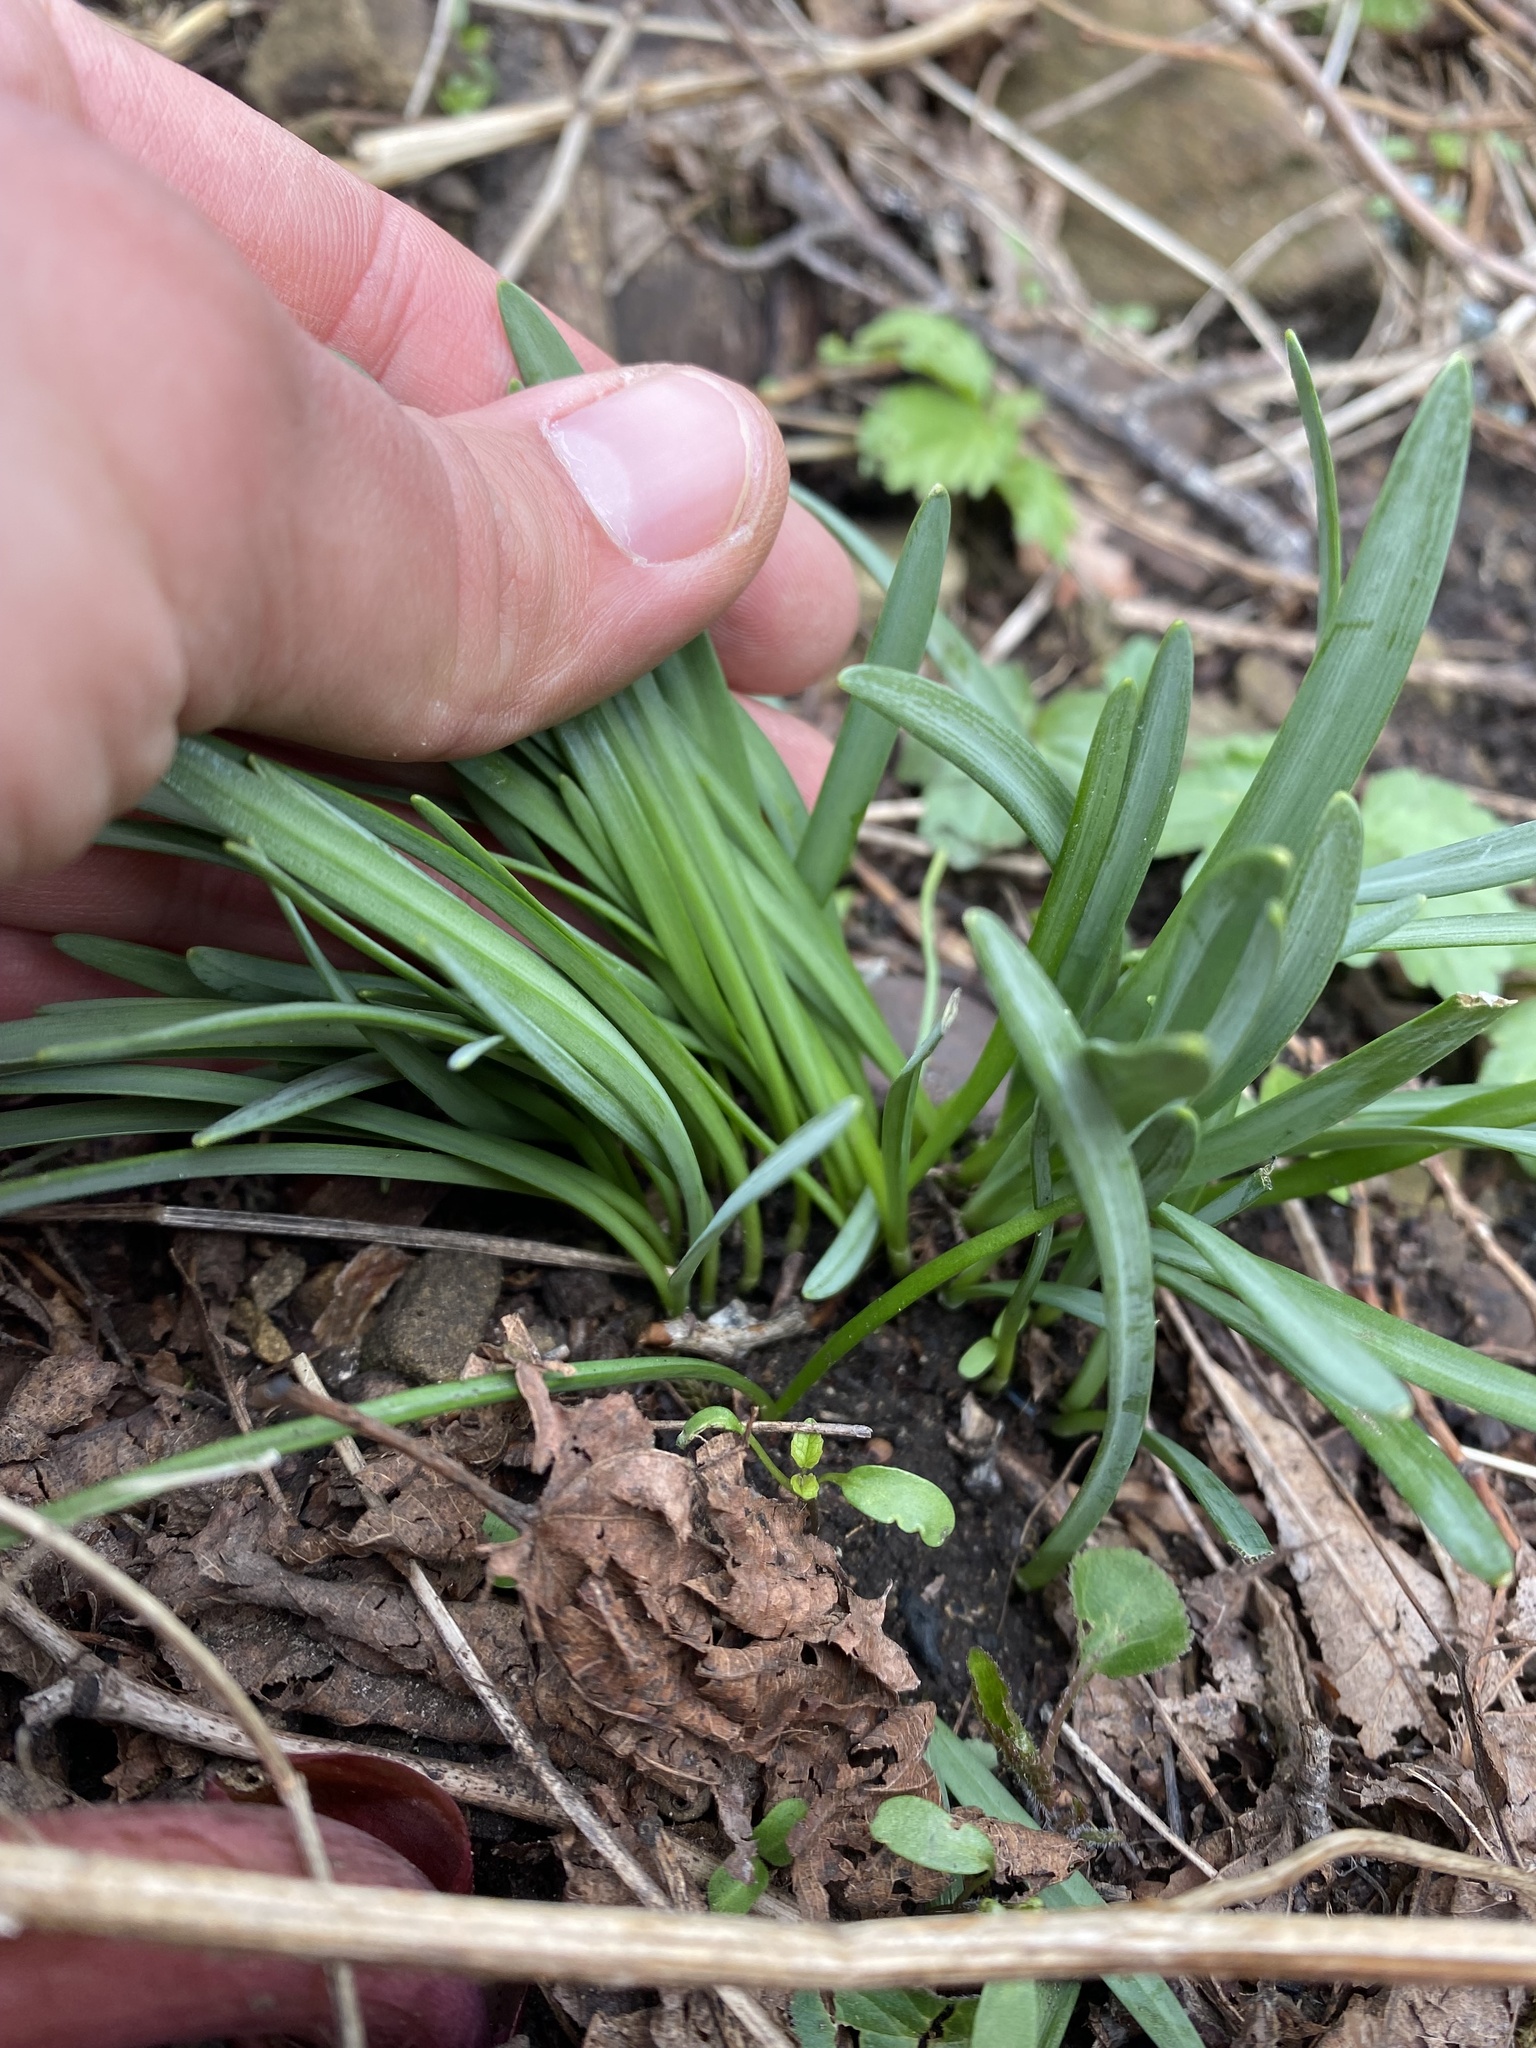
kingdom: Plantae
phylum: Tracheophyta
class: Liliopsida
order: Asparagales
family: Amaryllidaceae
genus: Galanthus
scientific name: Galanthus alpinus
